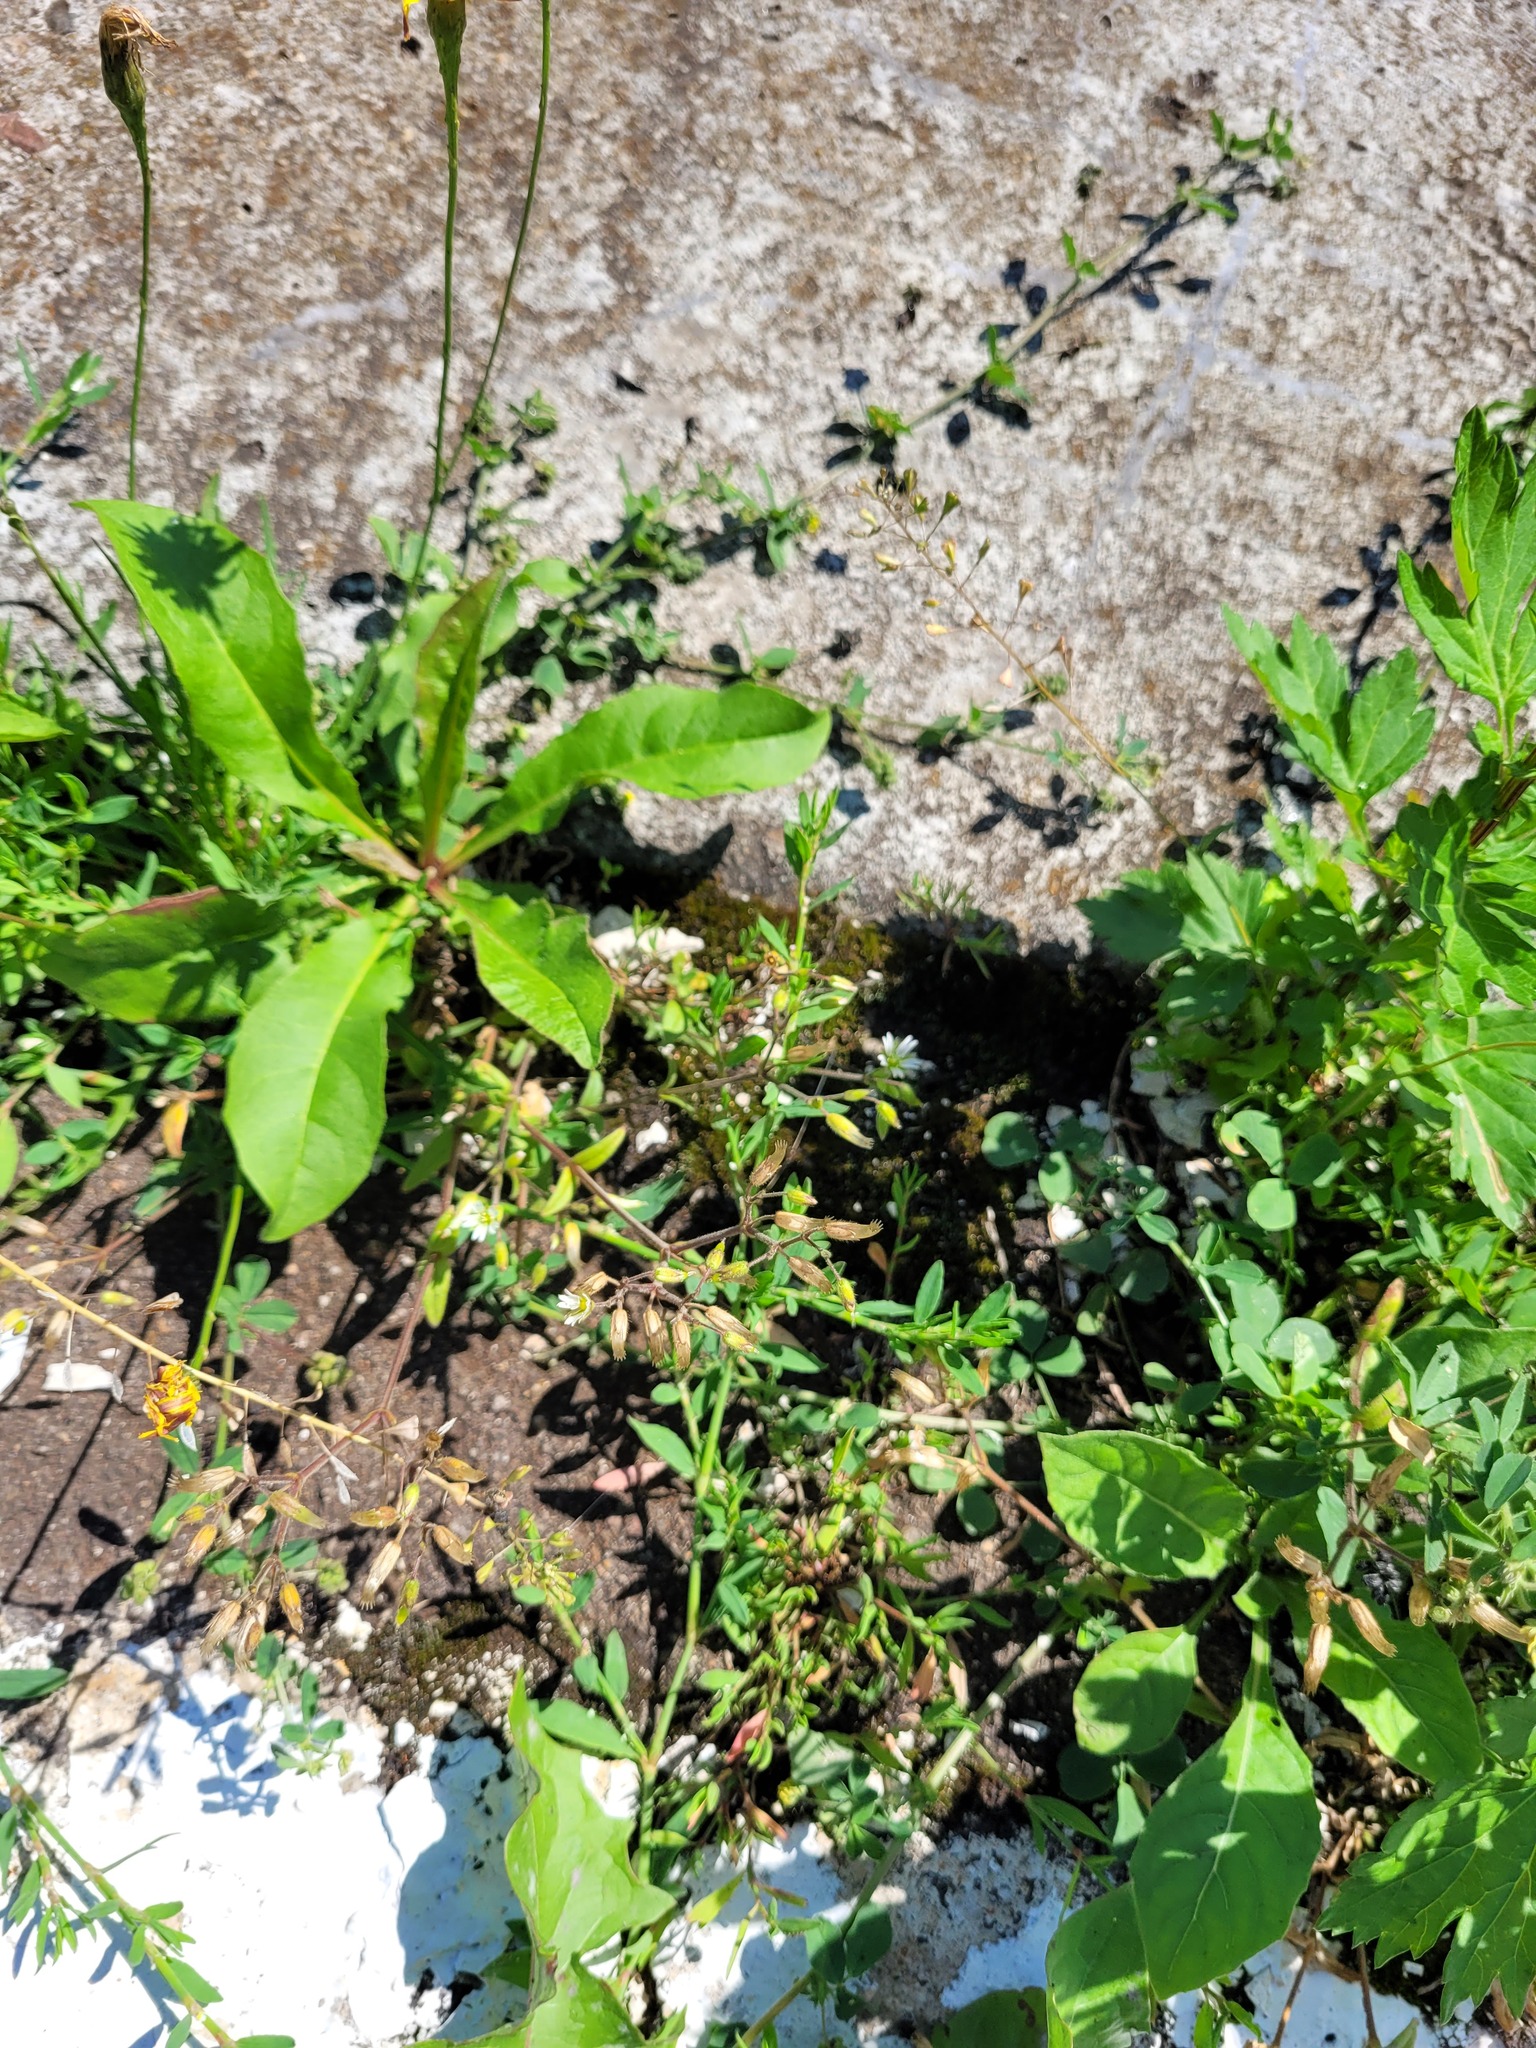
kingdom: Plantae
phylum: Tracheophyta
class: Magnoliopsida
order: Caryophyllales
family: Caryophyllaceae
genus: Cerastium
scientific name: Cerastium holosteoides
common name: Big chickweed
